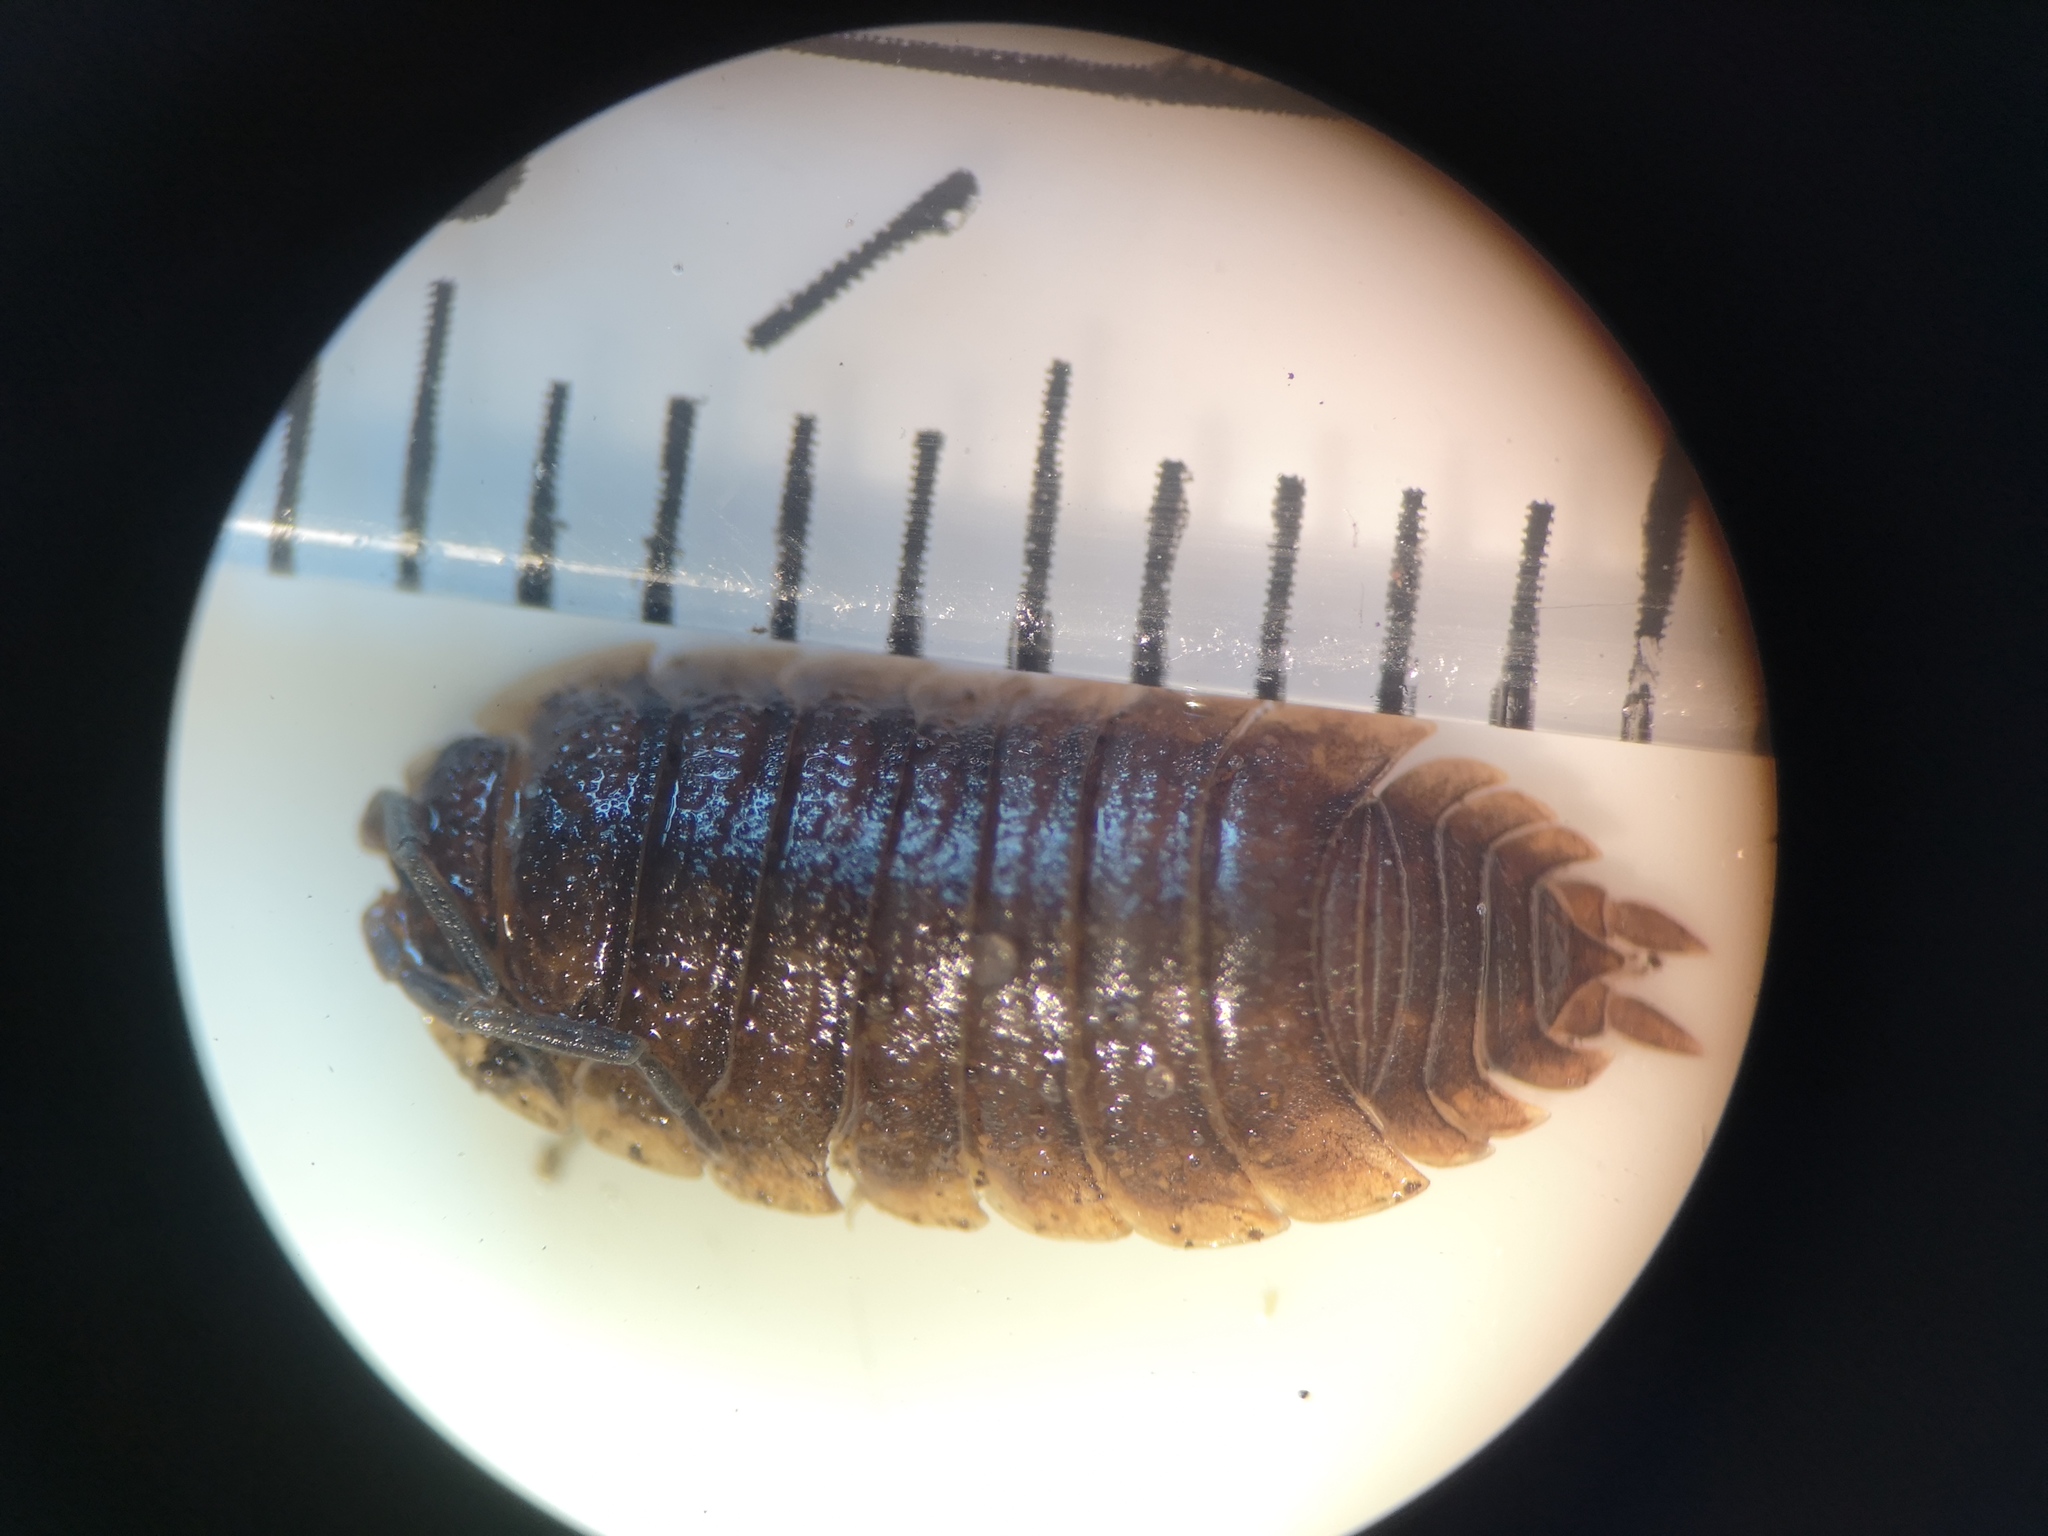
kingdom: Animalia
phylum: Arthropoda
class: Malacostraca
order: Isopoda
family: Porcellionidae
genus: Porcellio
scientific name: Porcellio scaber
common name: Common rough woodlouse
